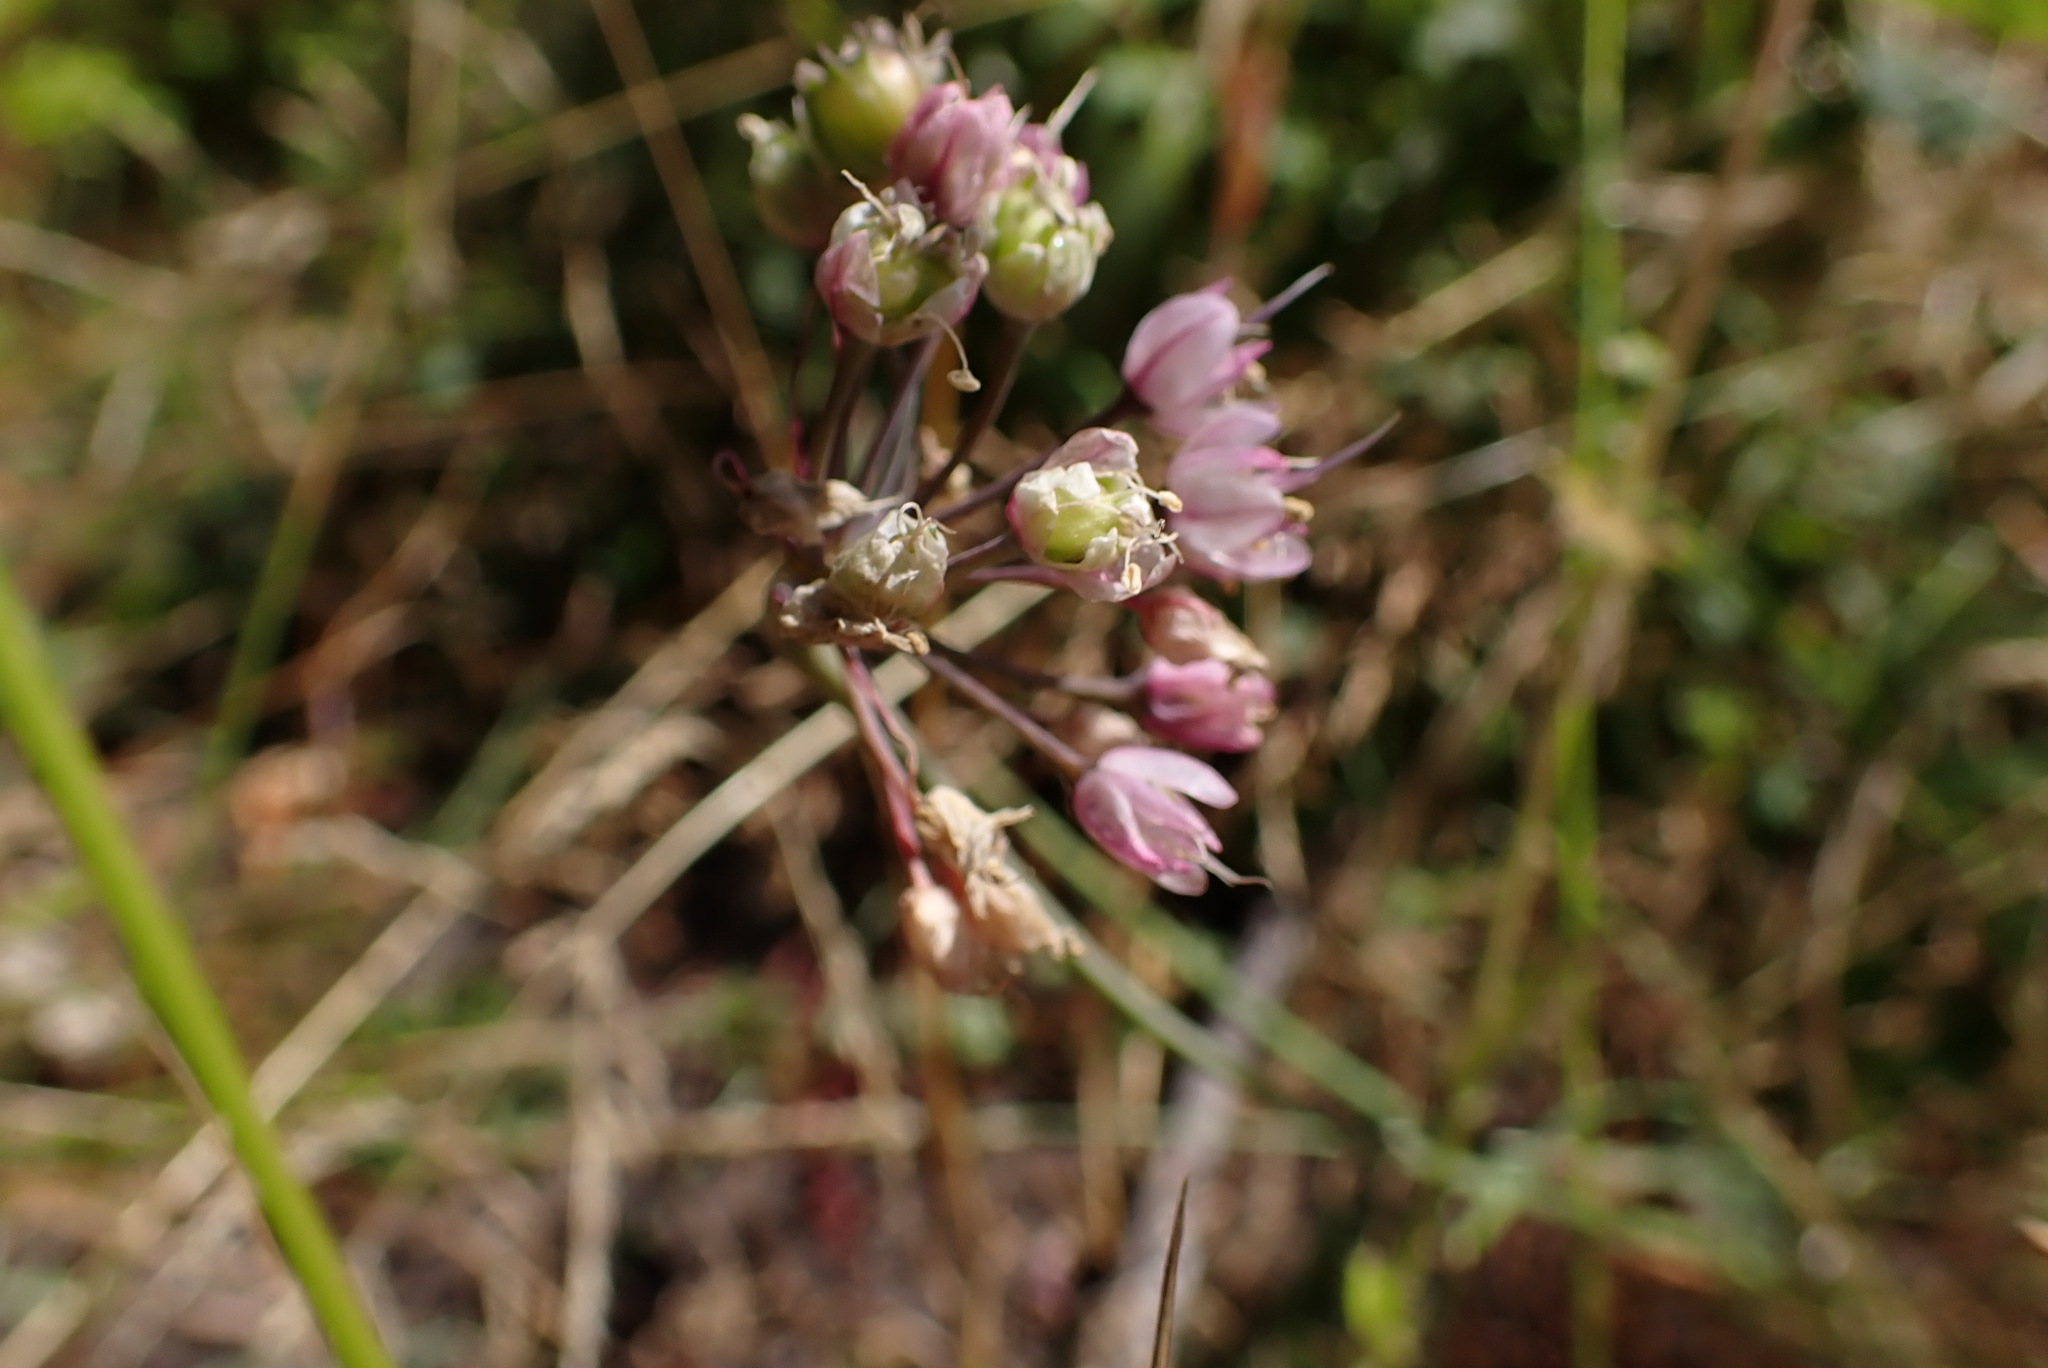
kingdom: Plantae
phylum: Tracheophyta
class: Liliopsida
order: Asparagales
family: Amaryllidaceae
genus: Allium
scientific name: Allium cernuum
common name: Nodding onion
